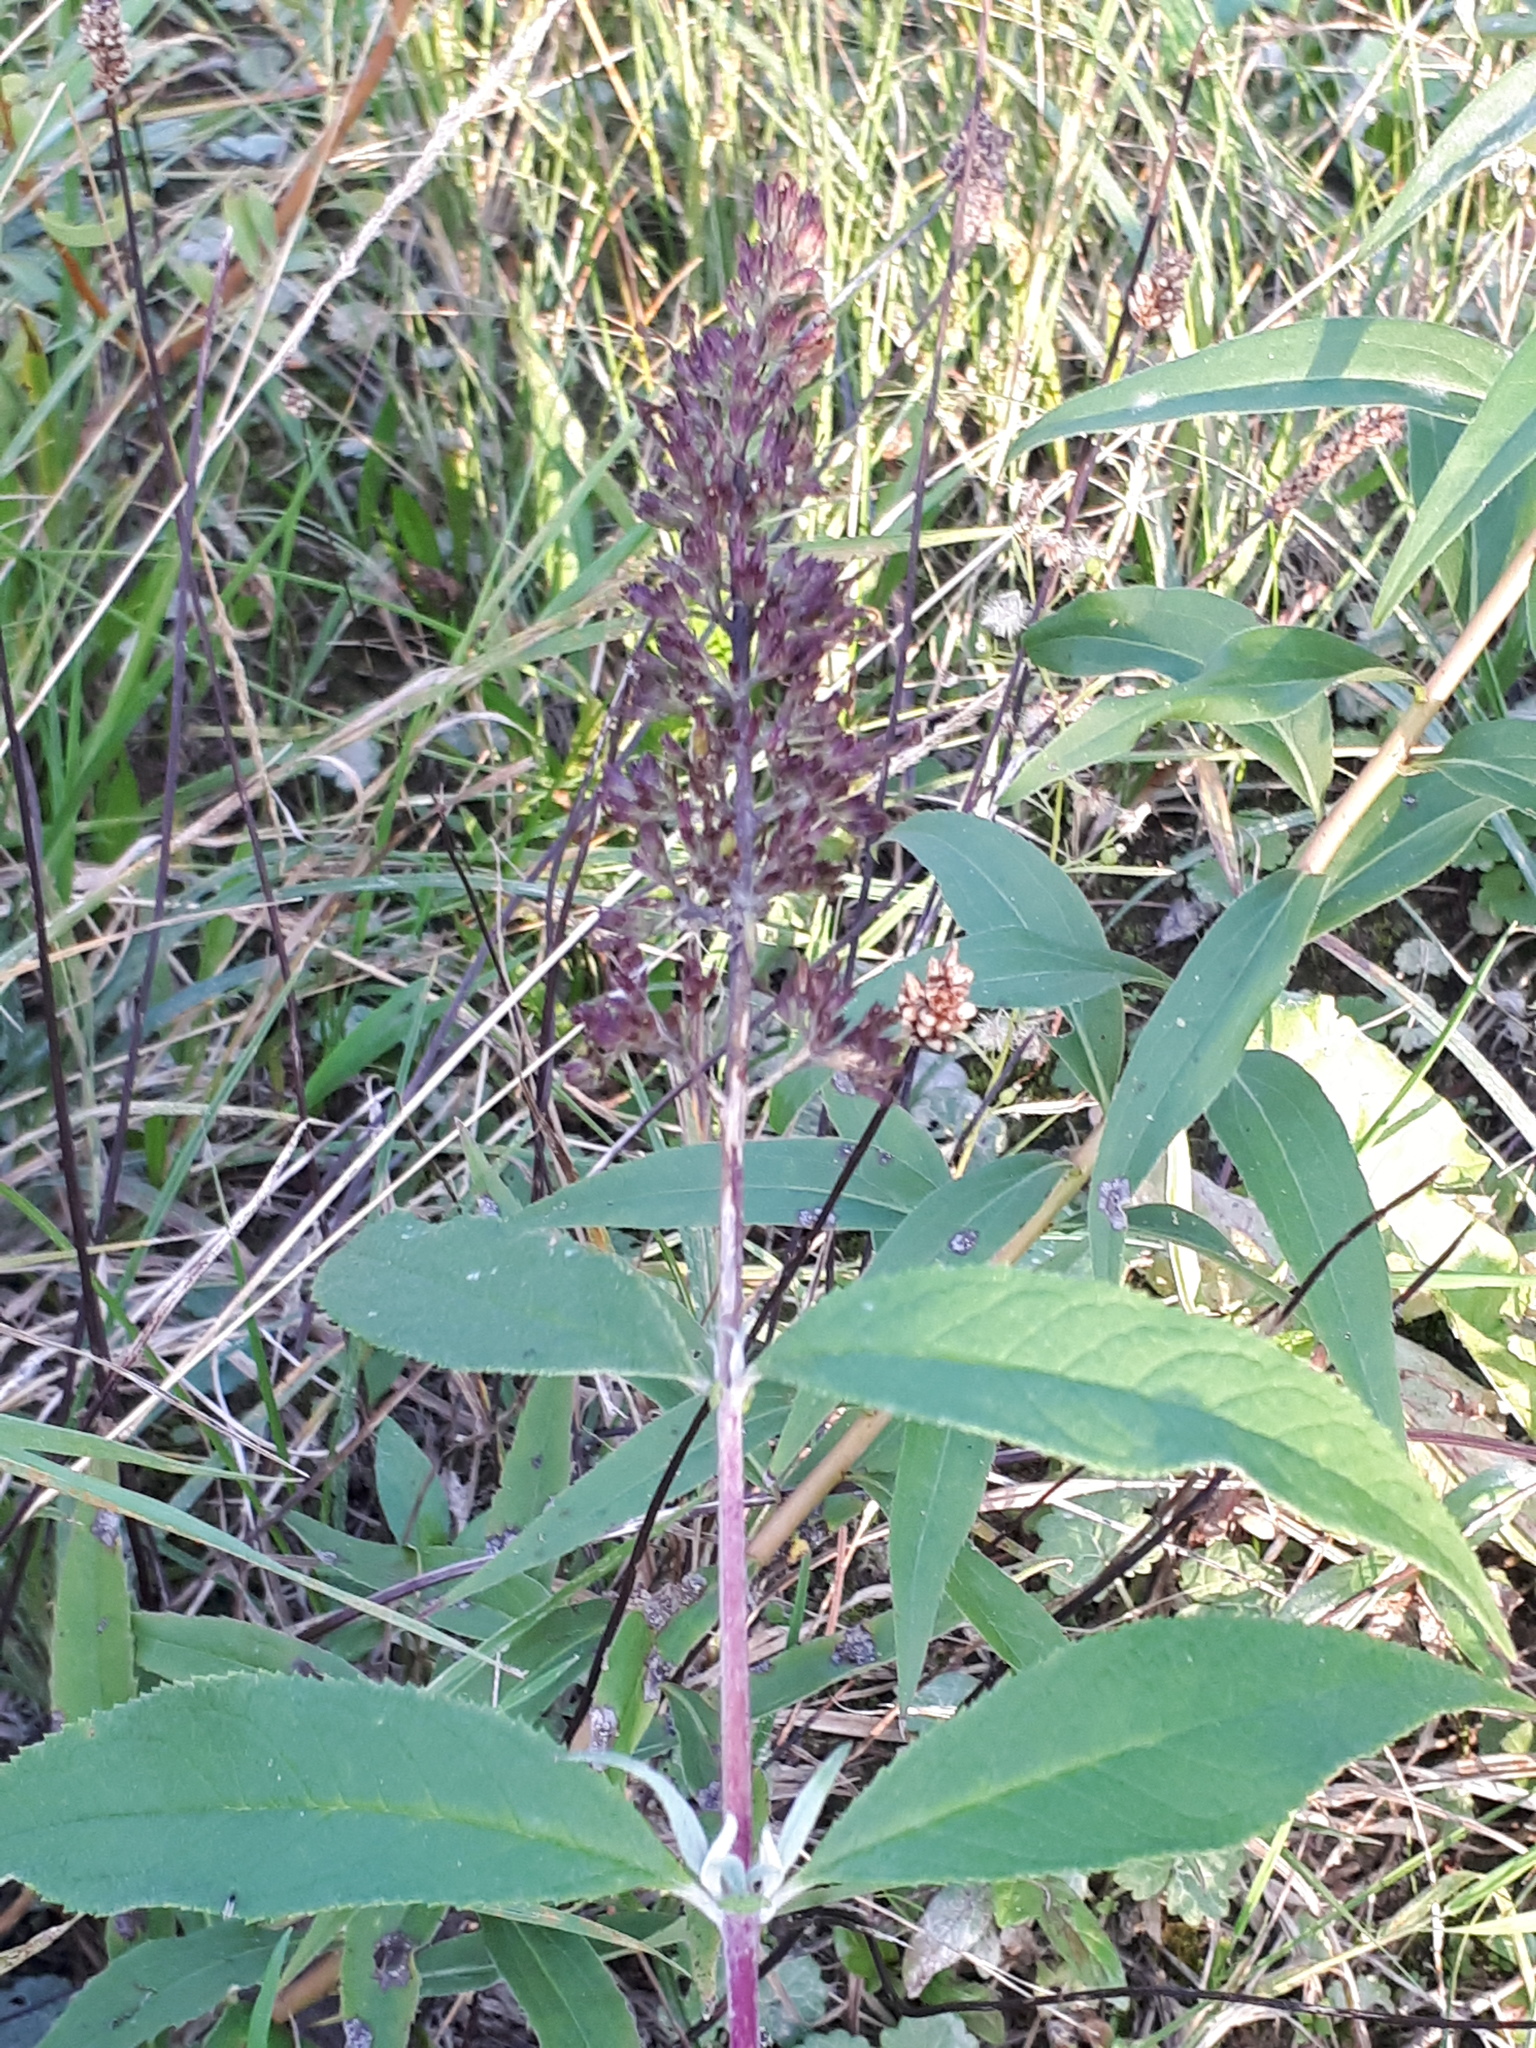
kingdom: Plantae
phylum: Tracheophyta
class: Magnoliopsida
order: Lamiales
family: Scrophulariaceae
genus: Buddleja
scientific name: Buddleja davidii
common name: Butterfly-bush
